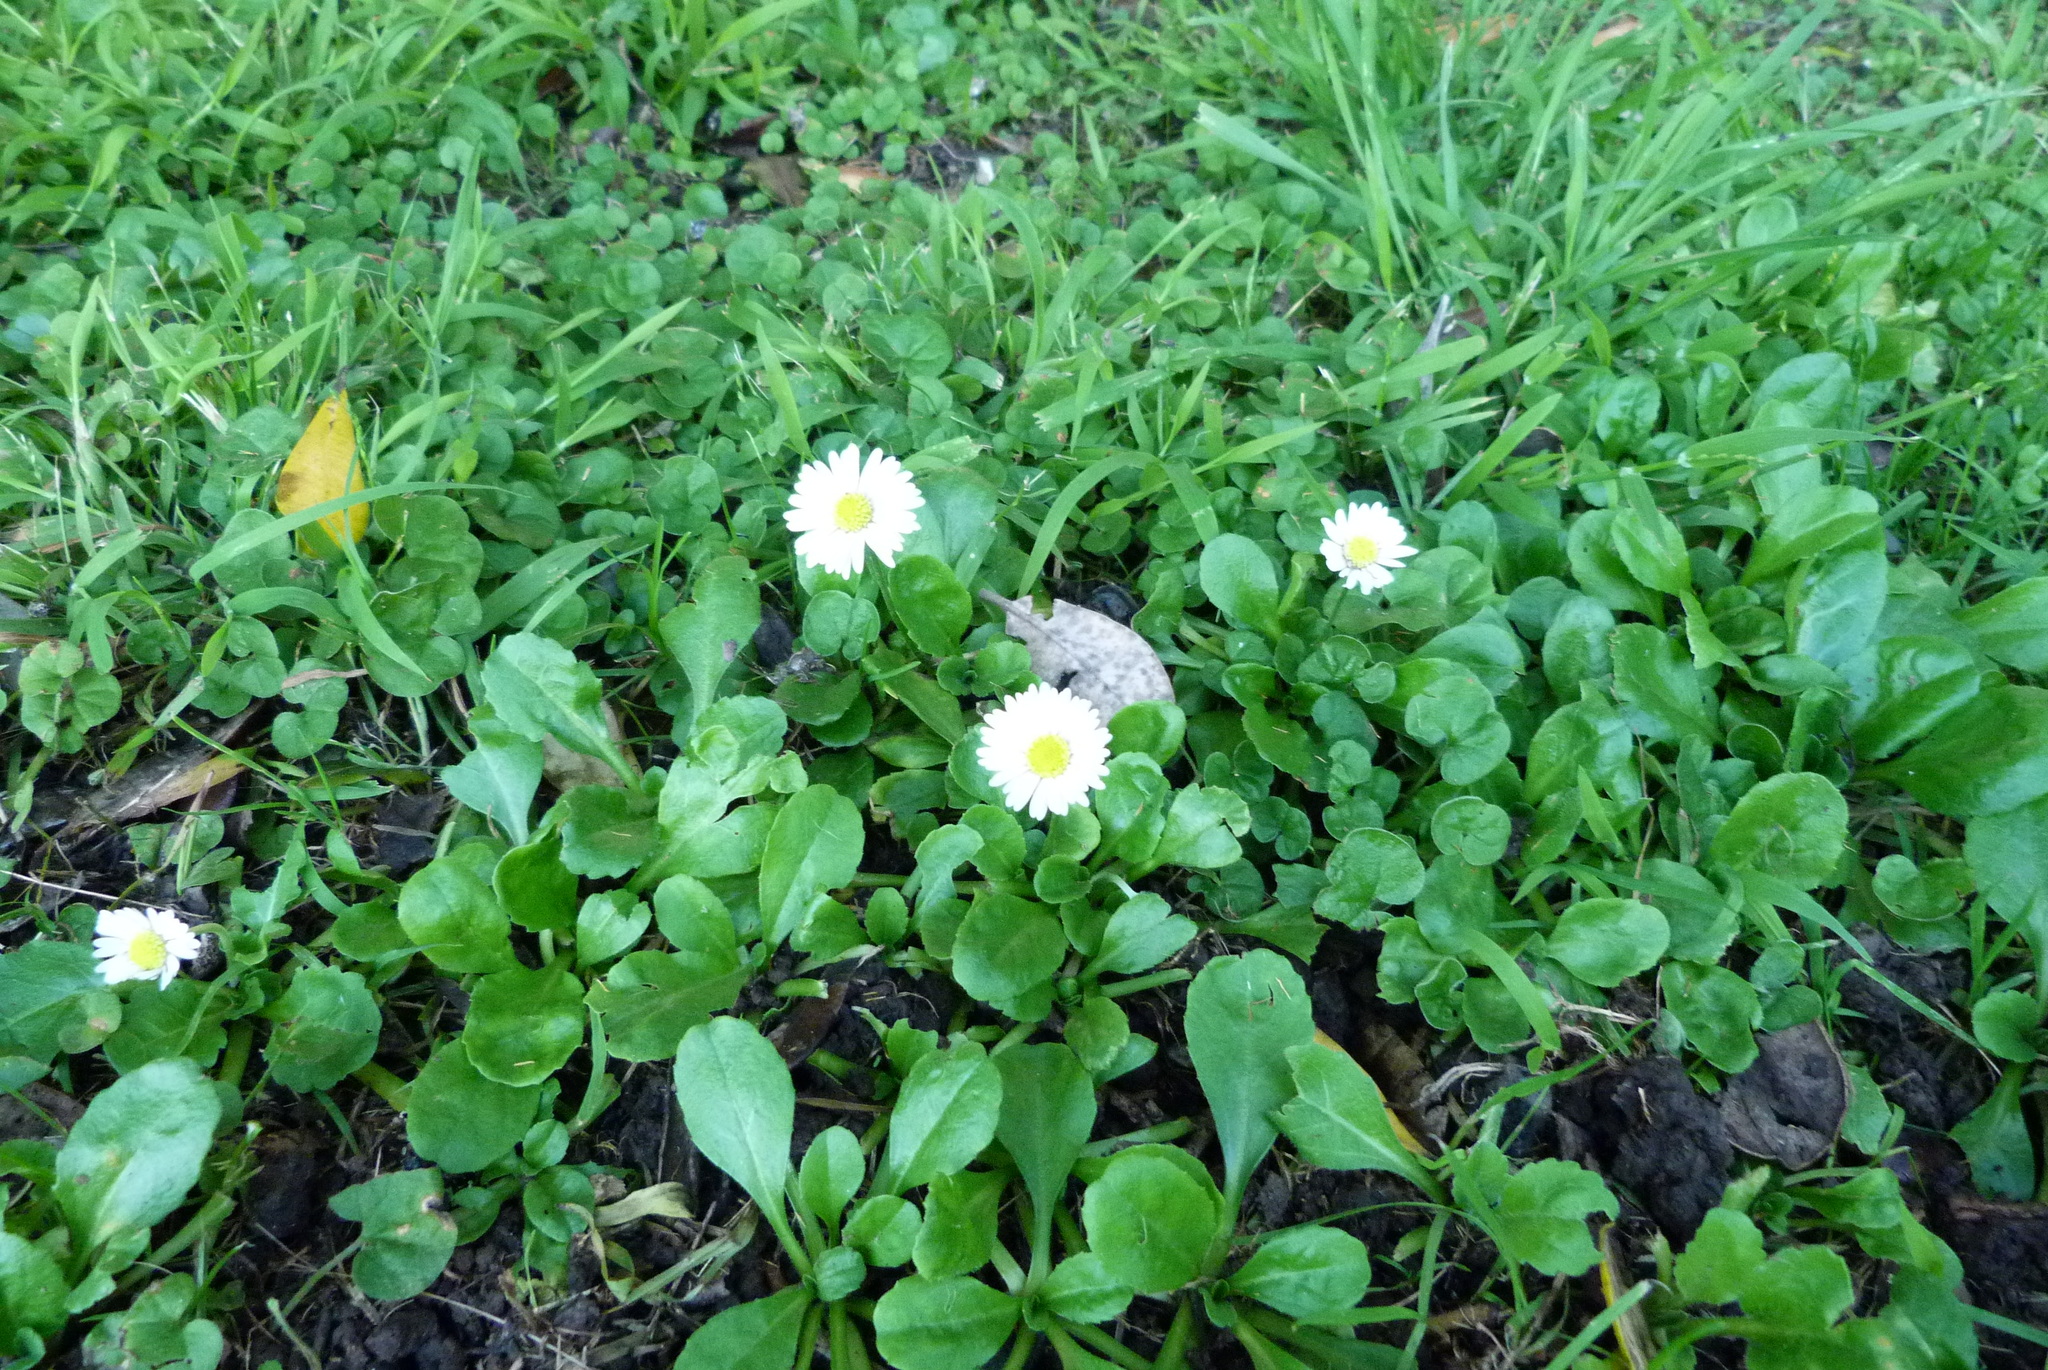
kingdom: Plantae
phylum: Tracheophyta
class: Magnoliopsida
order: Asterales
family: Asteraceae
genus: Bellis
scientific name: Bellis perennis
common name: Lawndaisy
